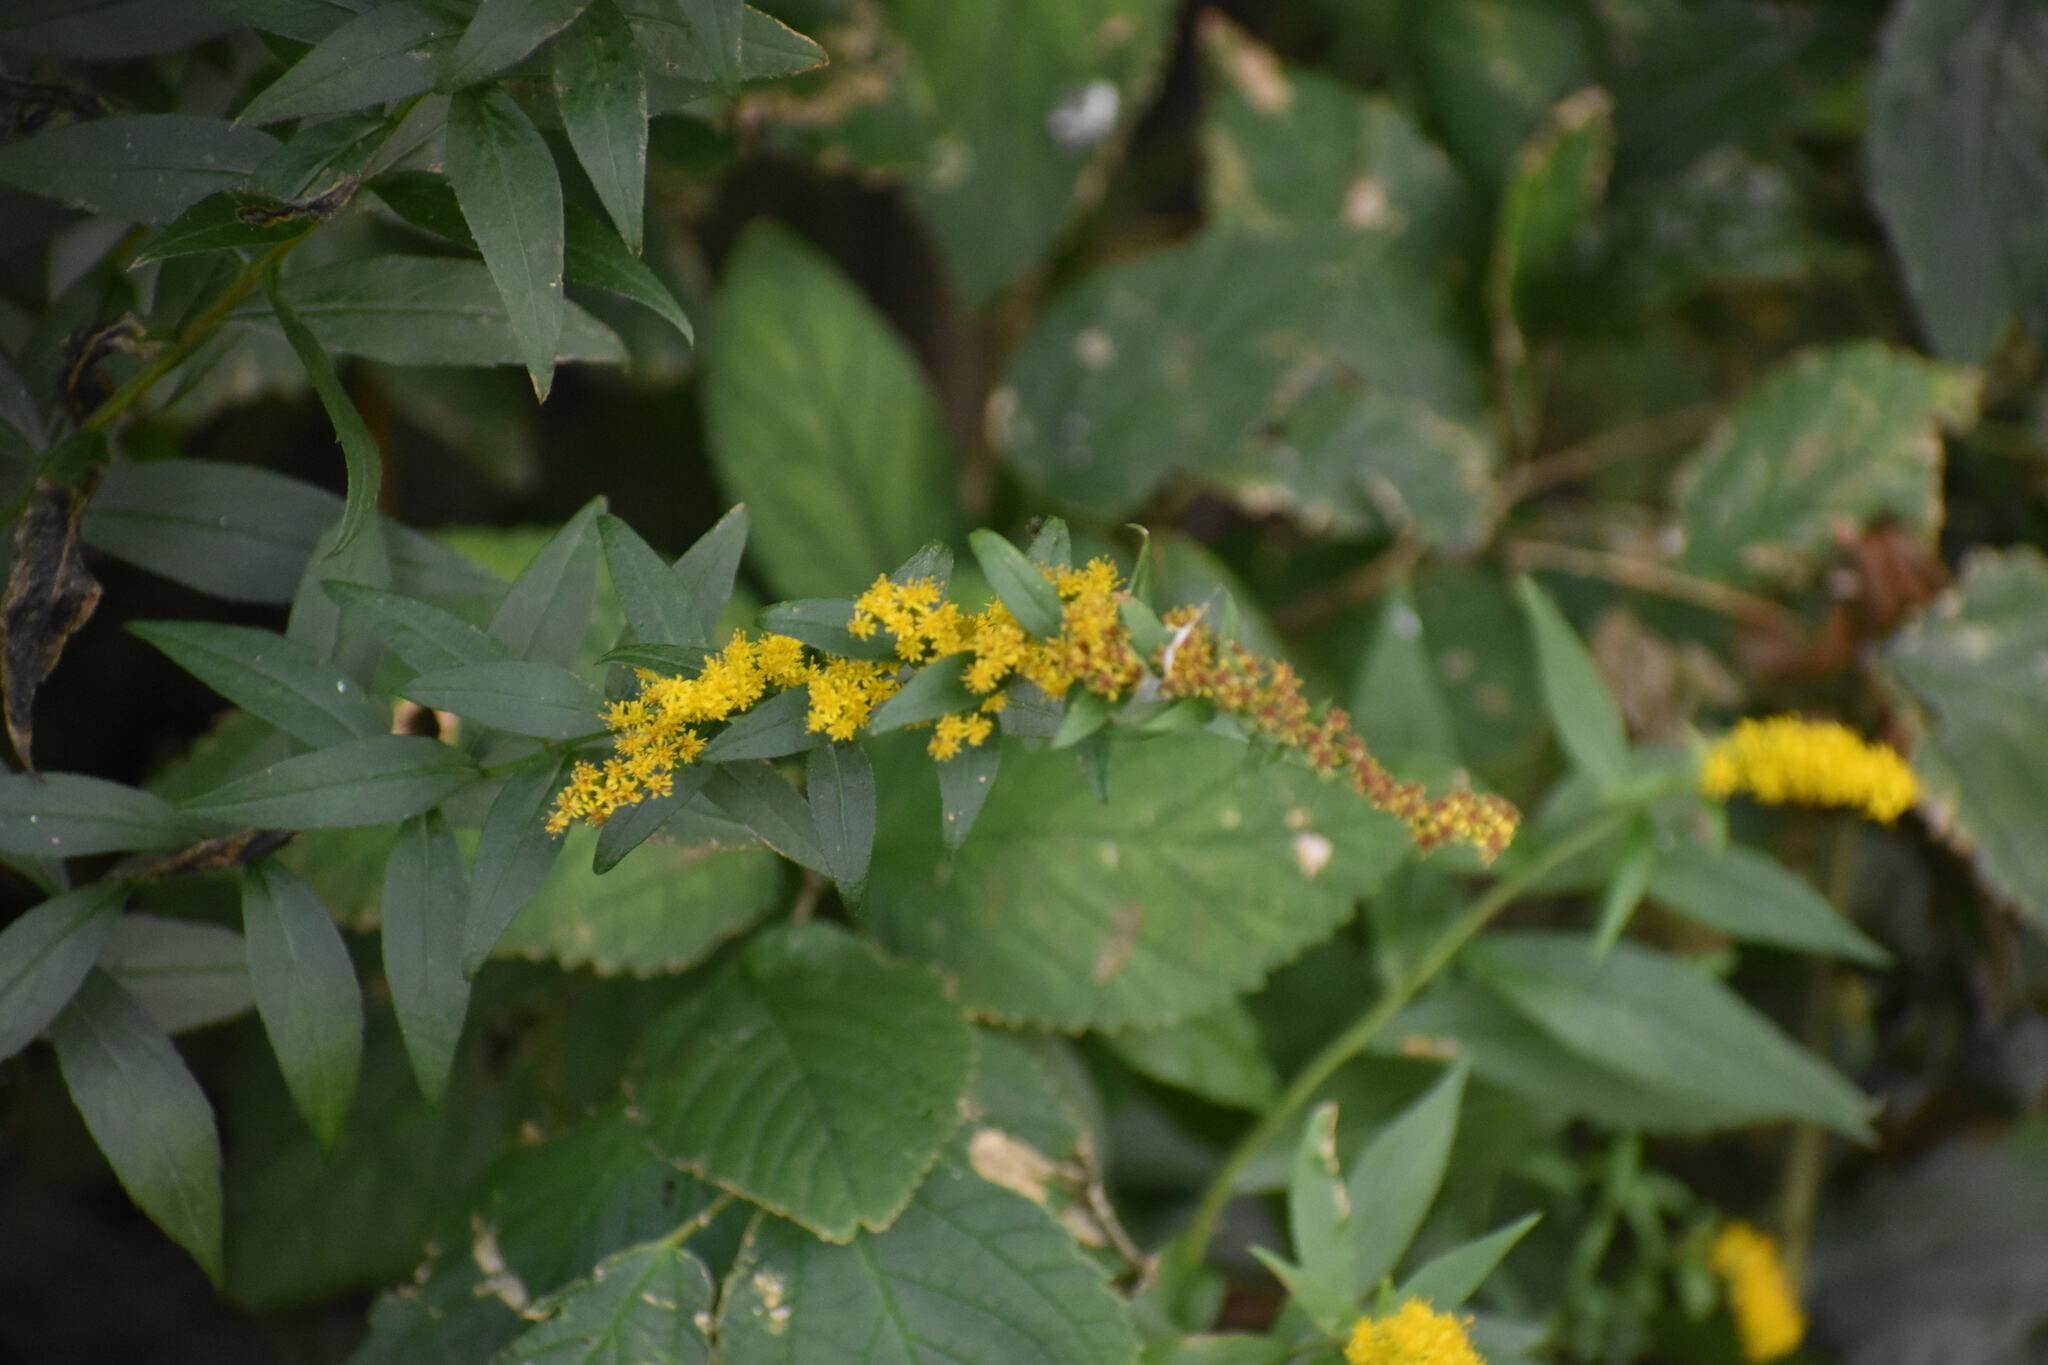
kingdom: Plantae
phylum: Tracheophyta
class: Magnoliopsida
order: Asterales
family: Asteraceae
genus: Solidago
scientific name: Solidago rugosa
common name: Rough-stemmed goldenrod
